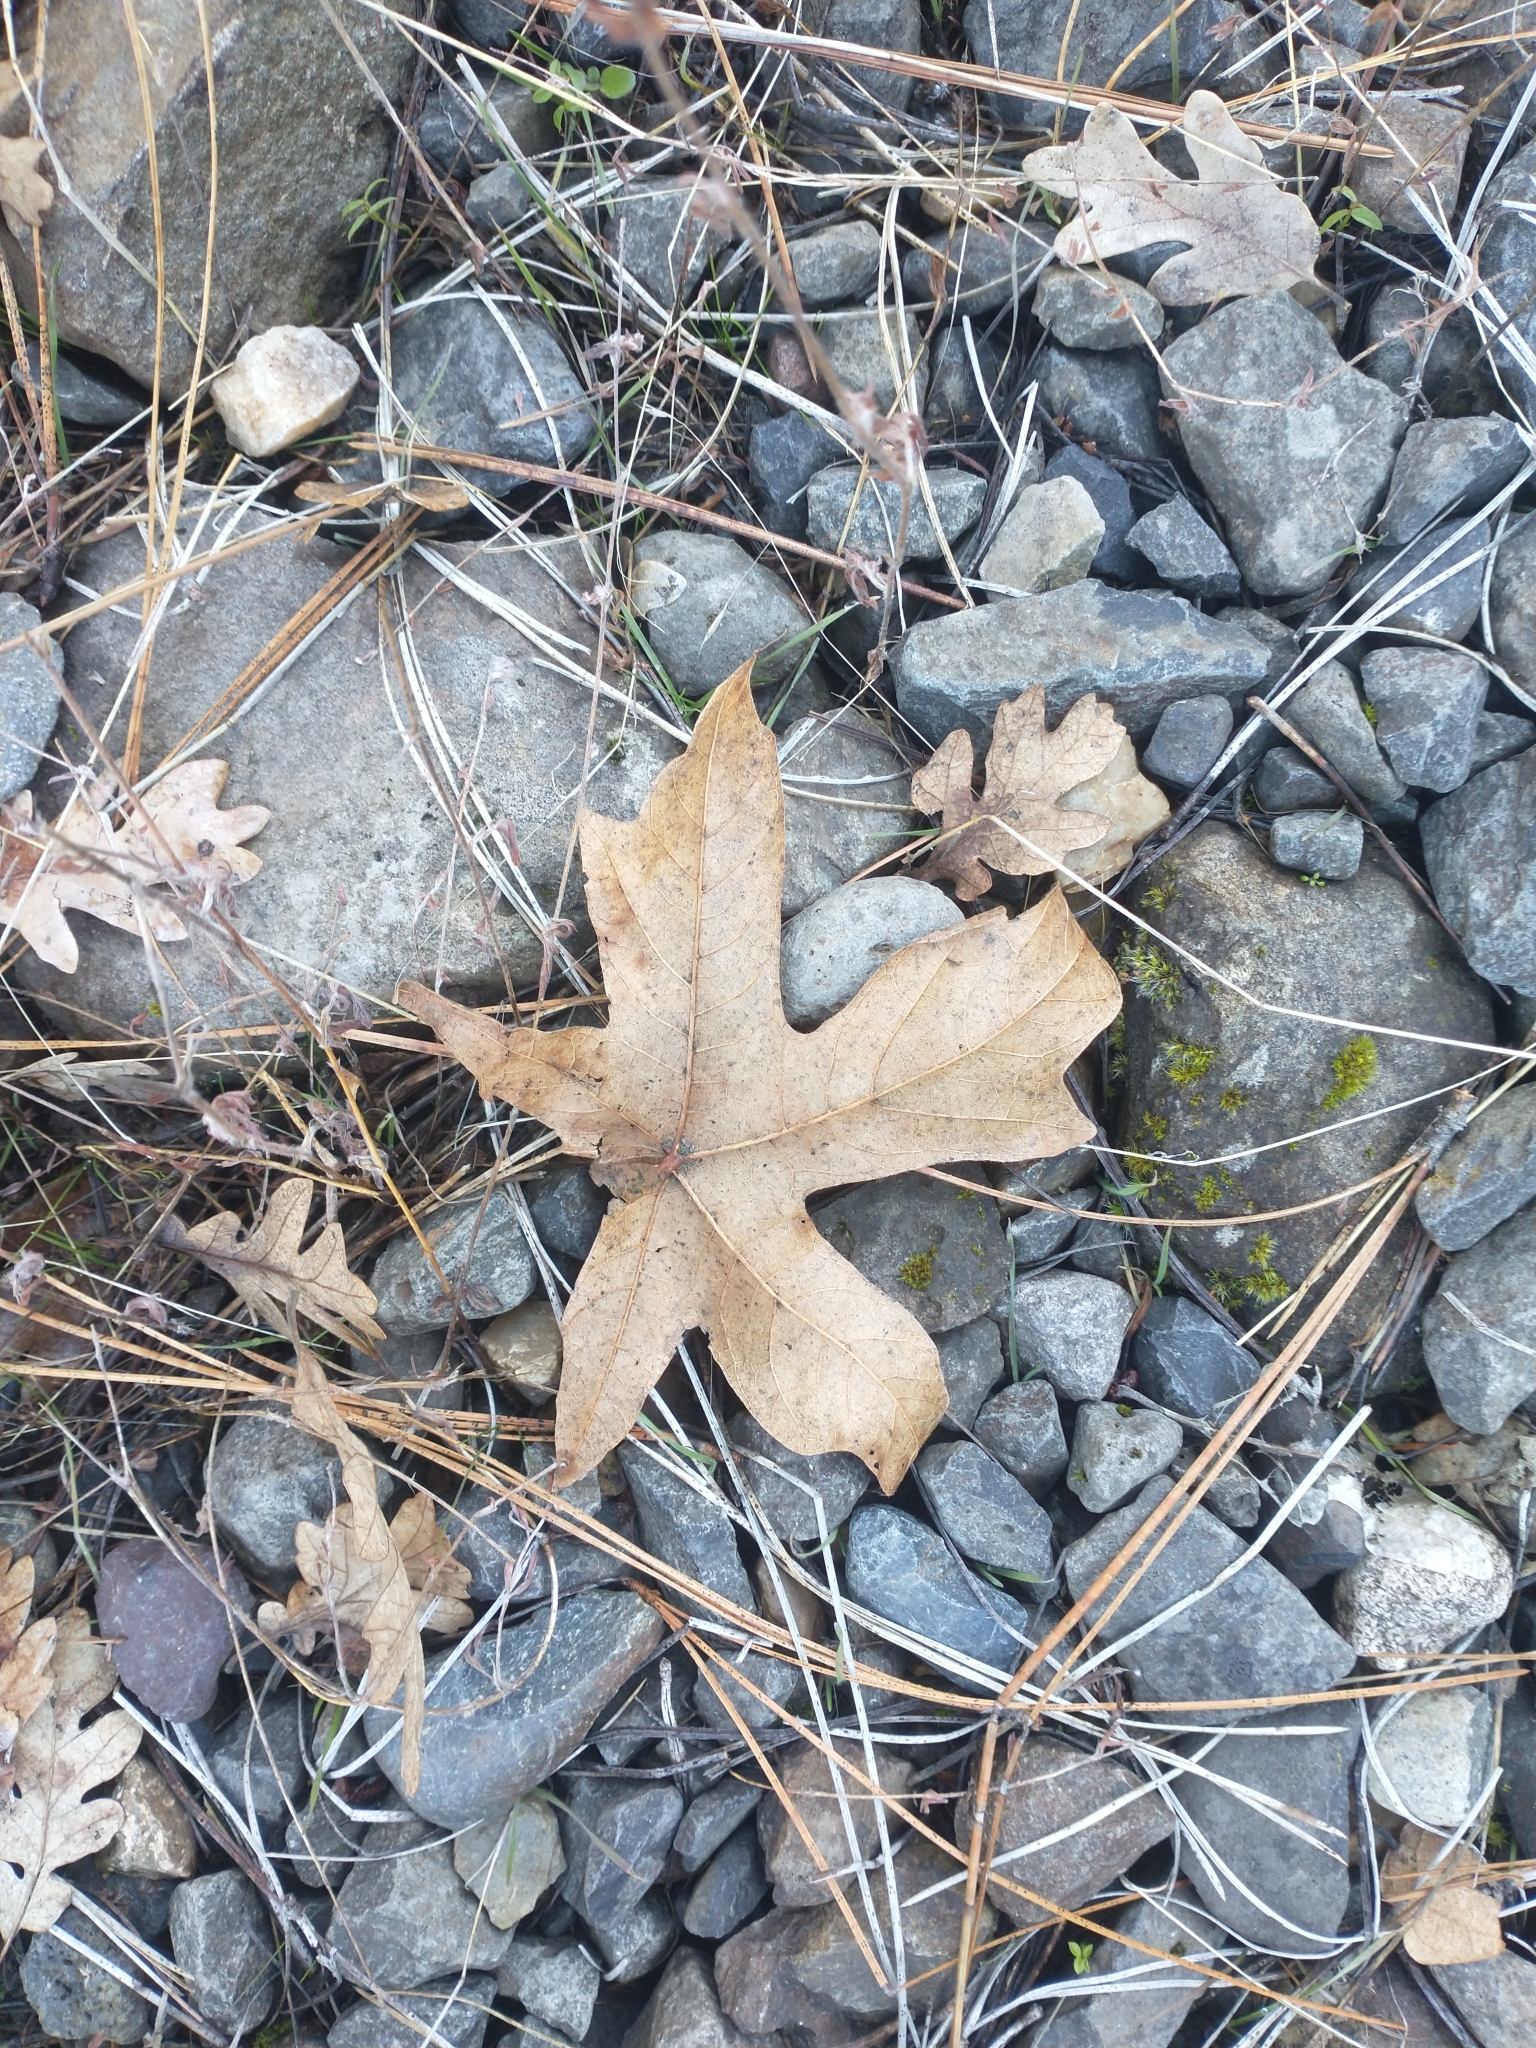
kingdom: Plantae
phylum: Tracheophyta
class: Magnoliopsida
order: Sapindales
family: Sapindaceae
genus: Acer
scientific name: Acer macrophyllum
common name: Oregon maple
